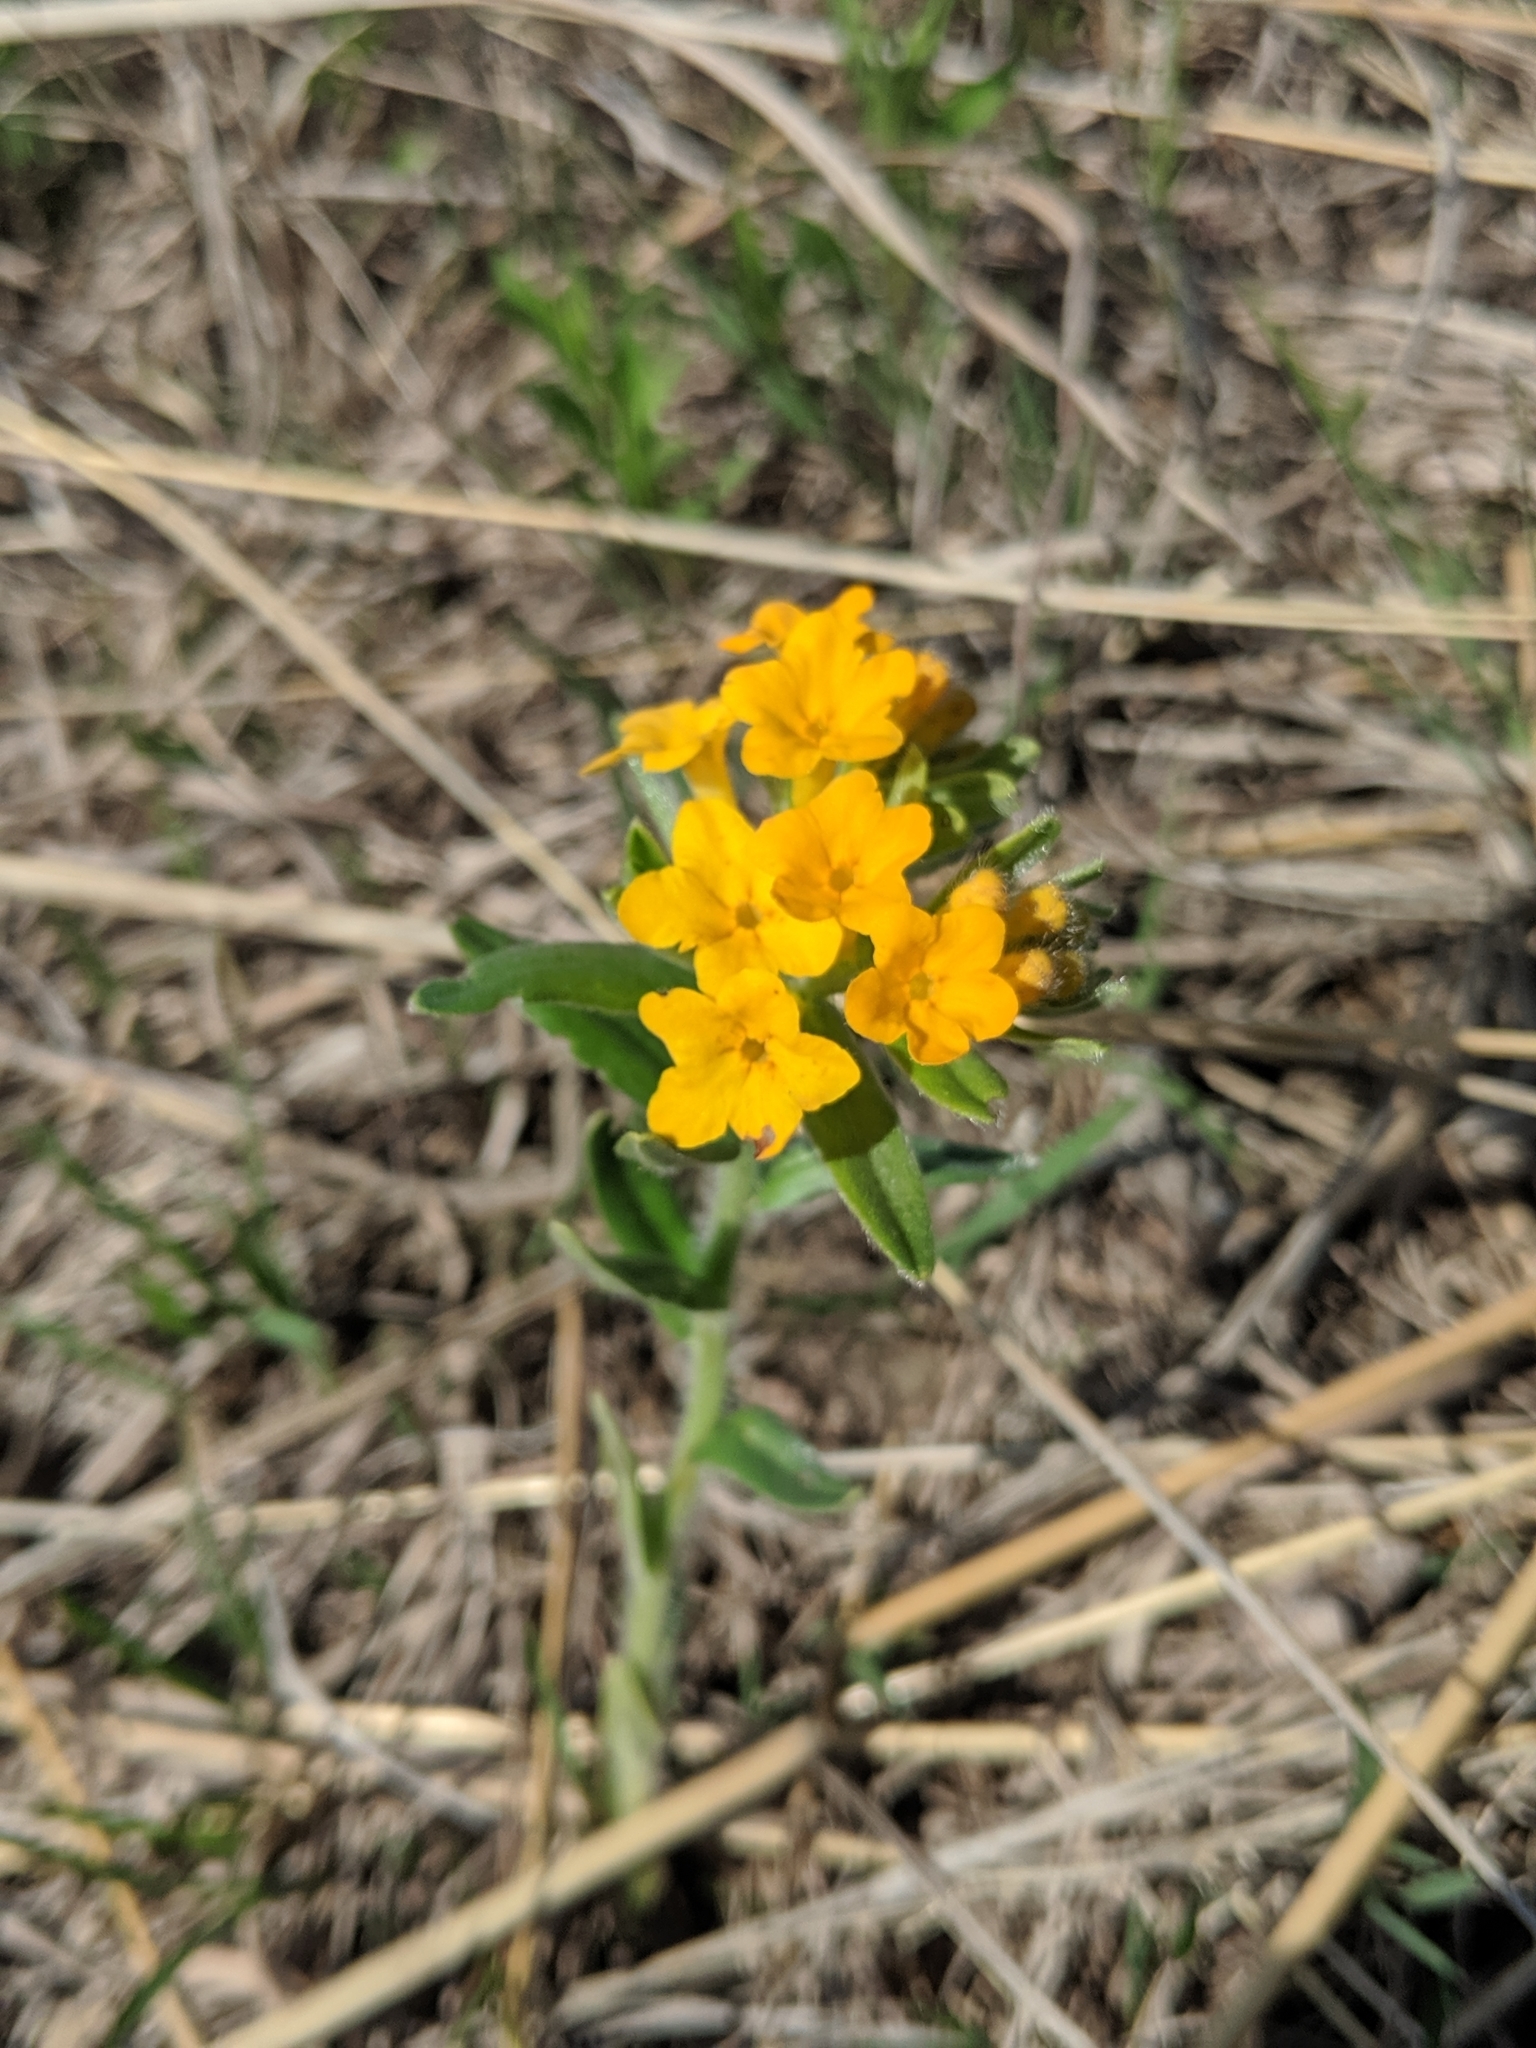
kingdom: Plantae
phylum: Tracheophyta
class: Magnoliopsida
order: Boraginales
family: Boraginaceae
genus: Lithospermum
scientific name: Lithospermum canescens
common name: Hoary puccoon
